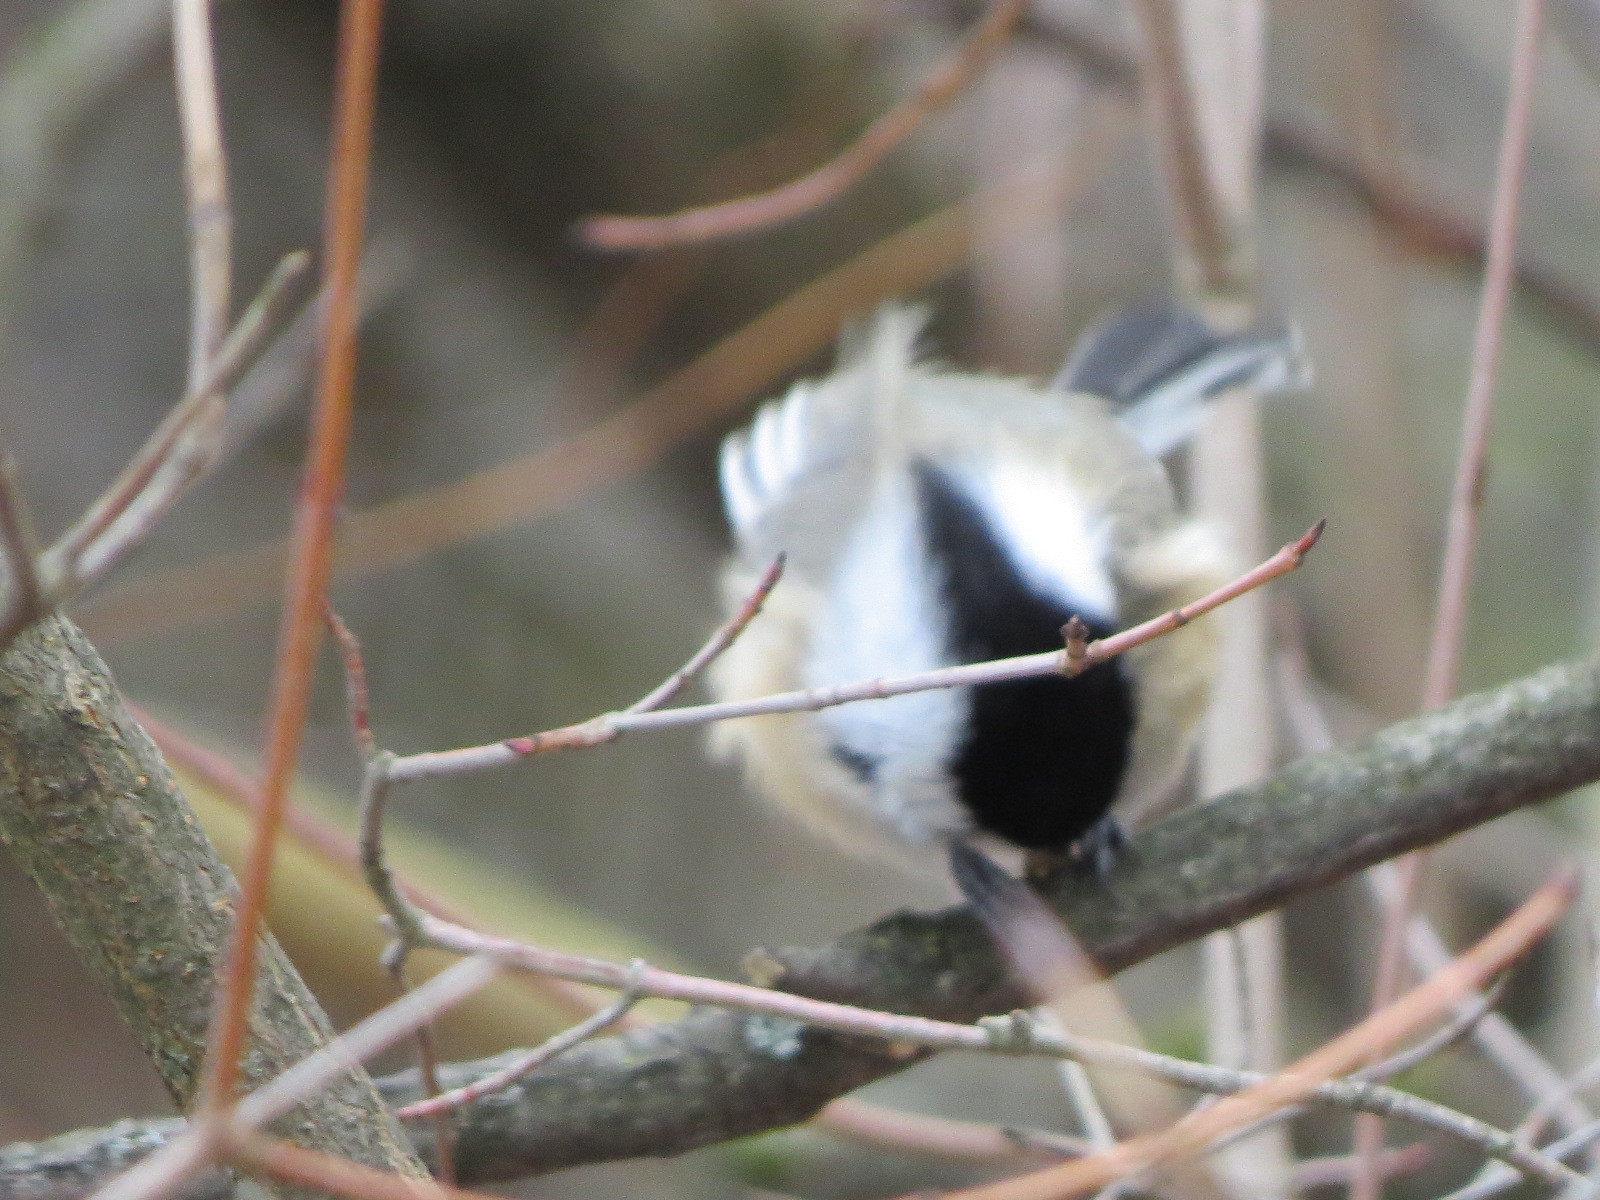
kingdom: Animalia
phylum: Chordata
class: Aves
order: Passeriformes
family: Paridae
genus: Poecile
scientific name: Poecile atricapillus
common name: Black-capped chickadee
